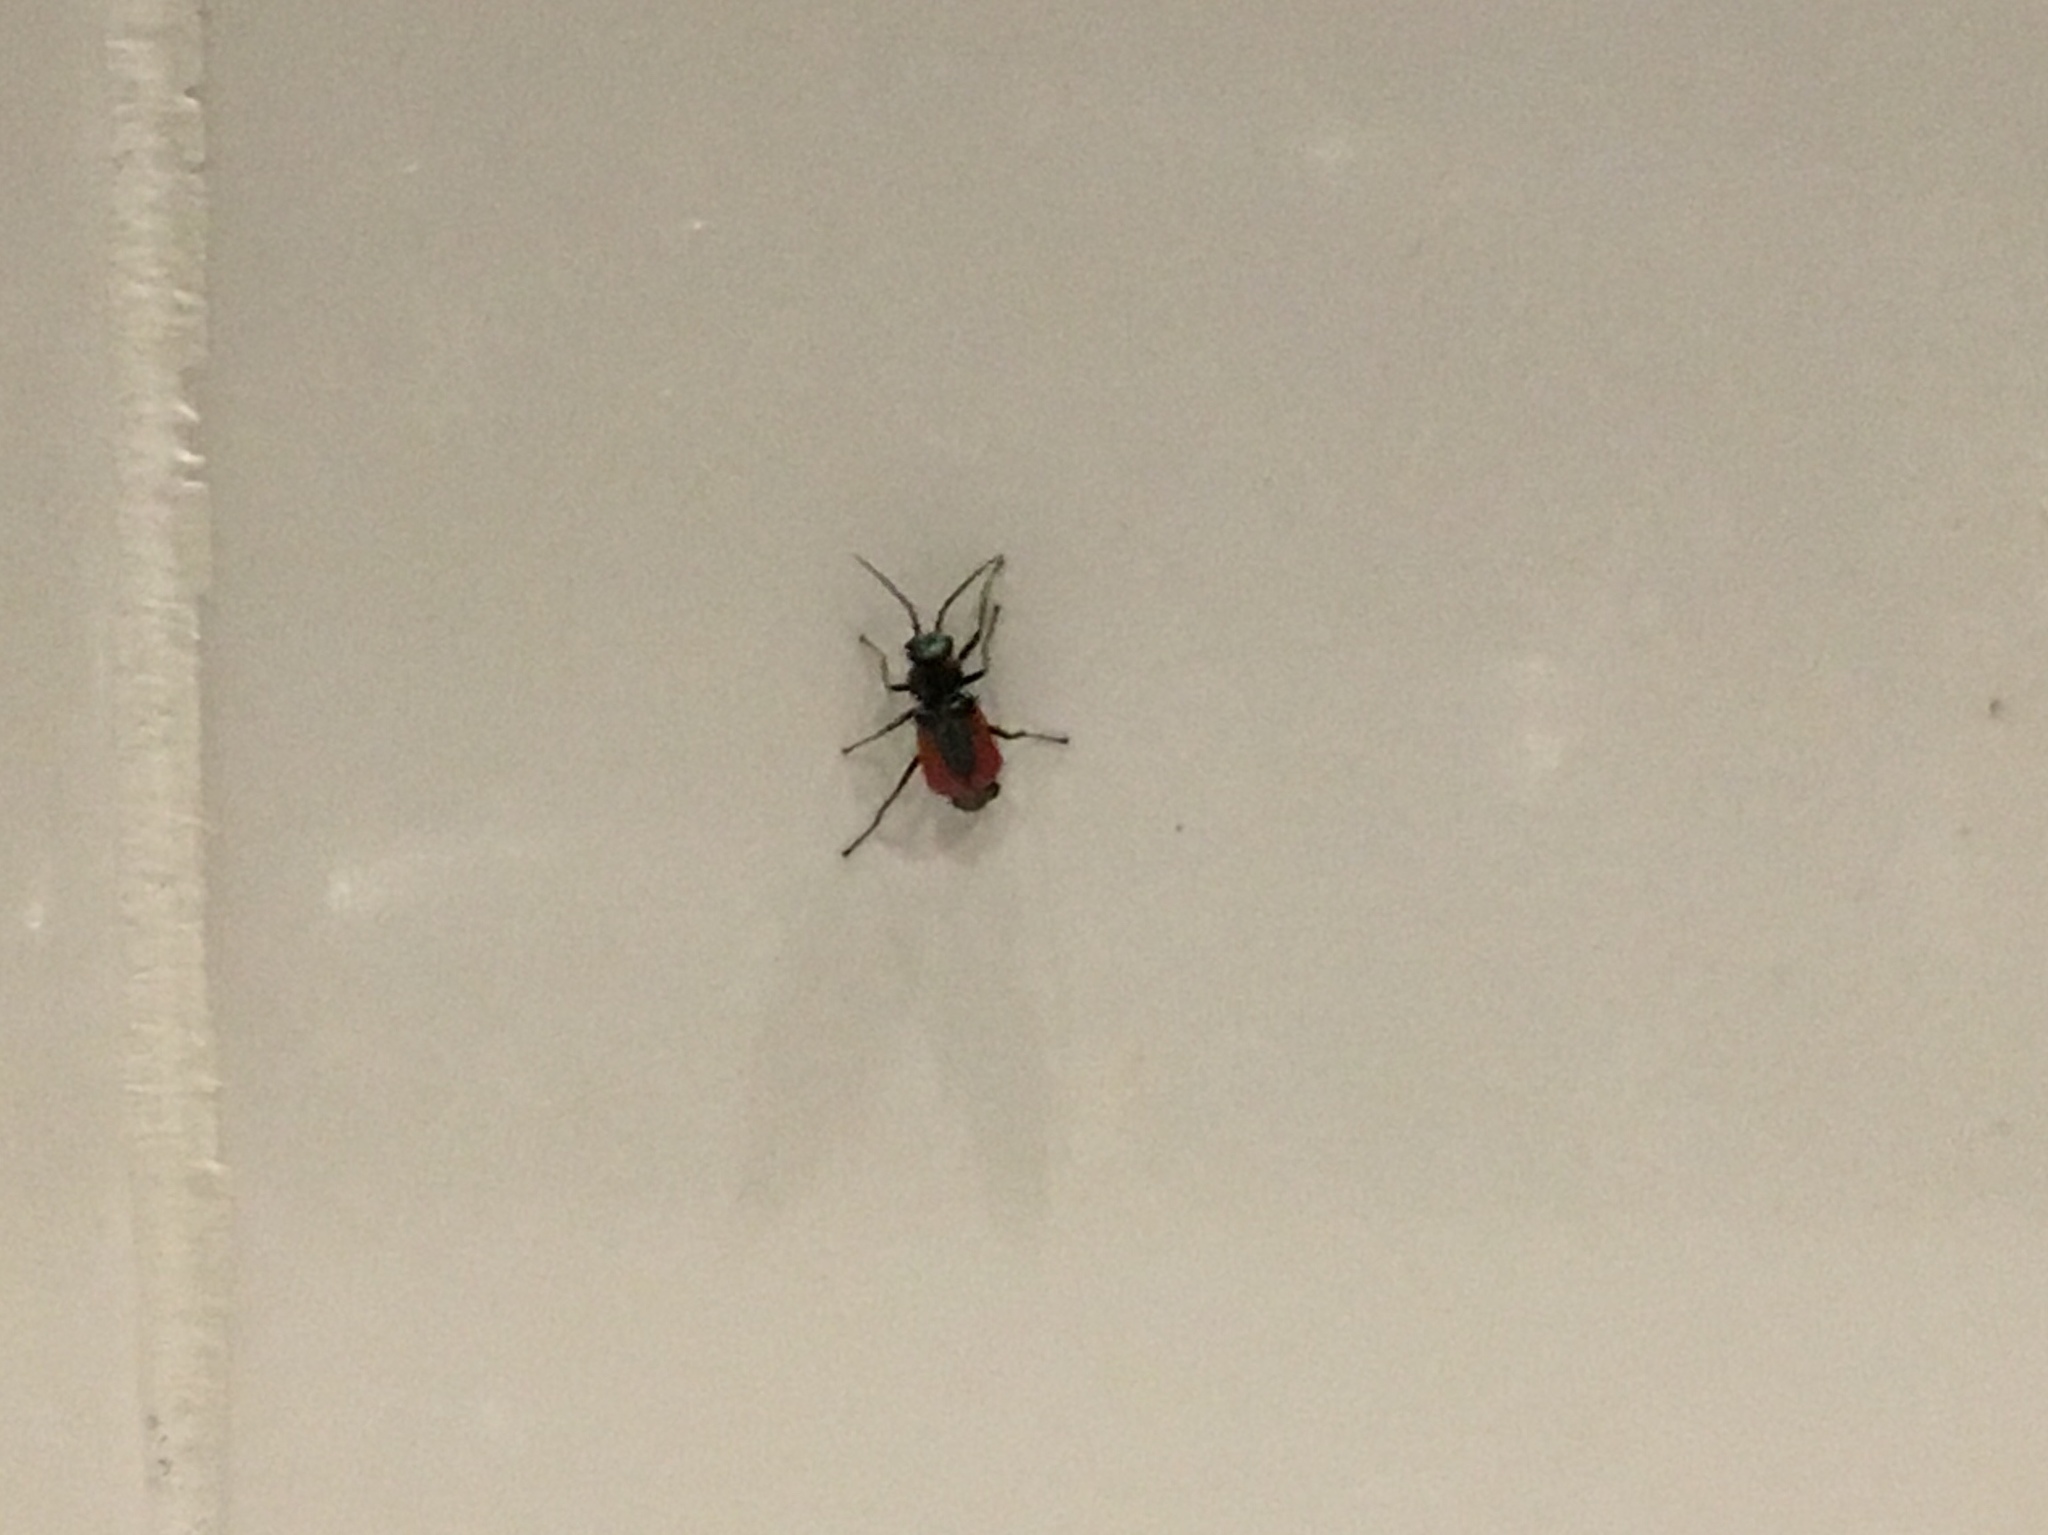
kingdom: Animalia
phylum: Arthropoda
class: Insecta
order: Coleoptera
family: Melyridae
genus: Malachius
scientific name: Malachius aeneus
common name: Scarlet malachite beetle
